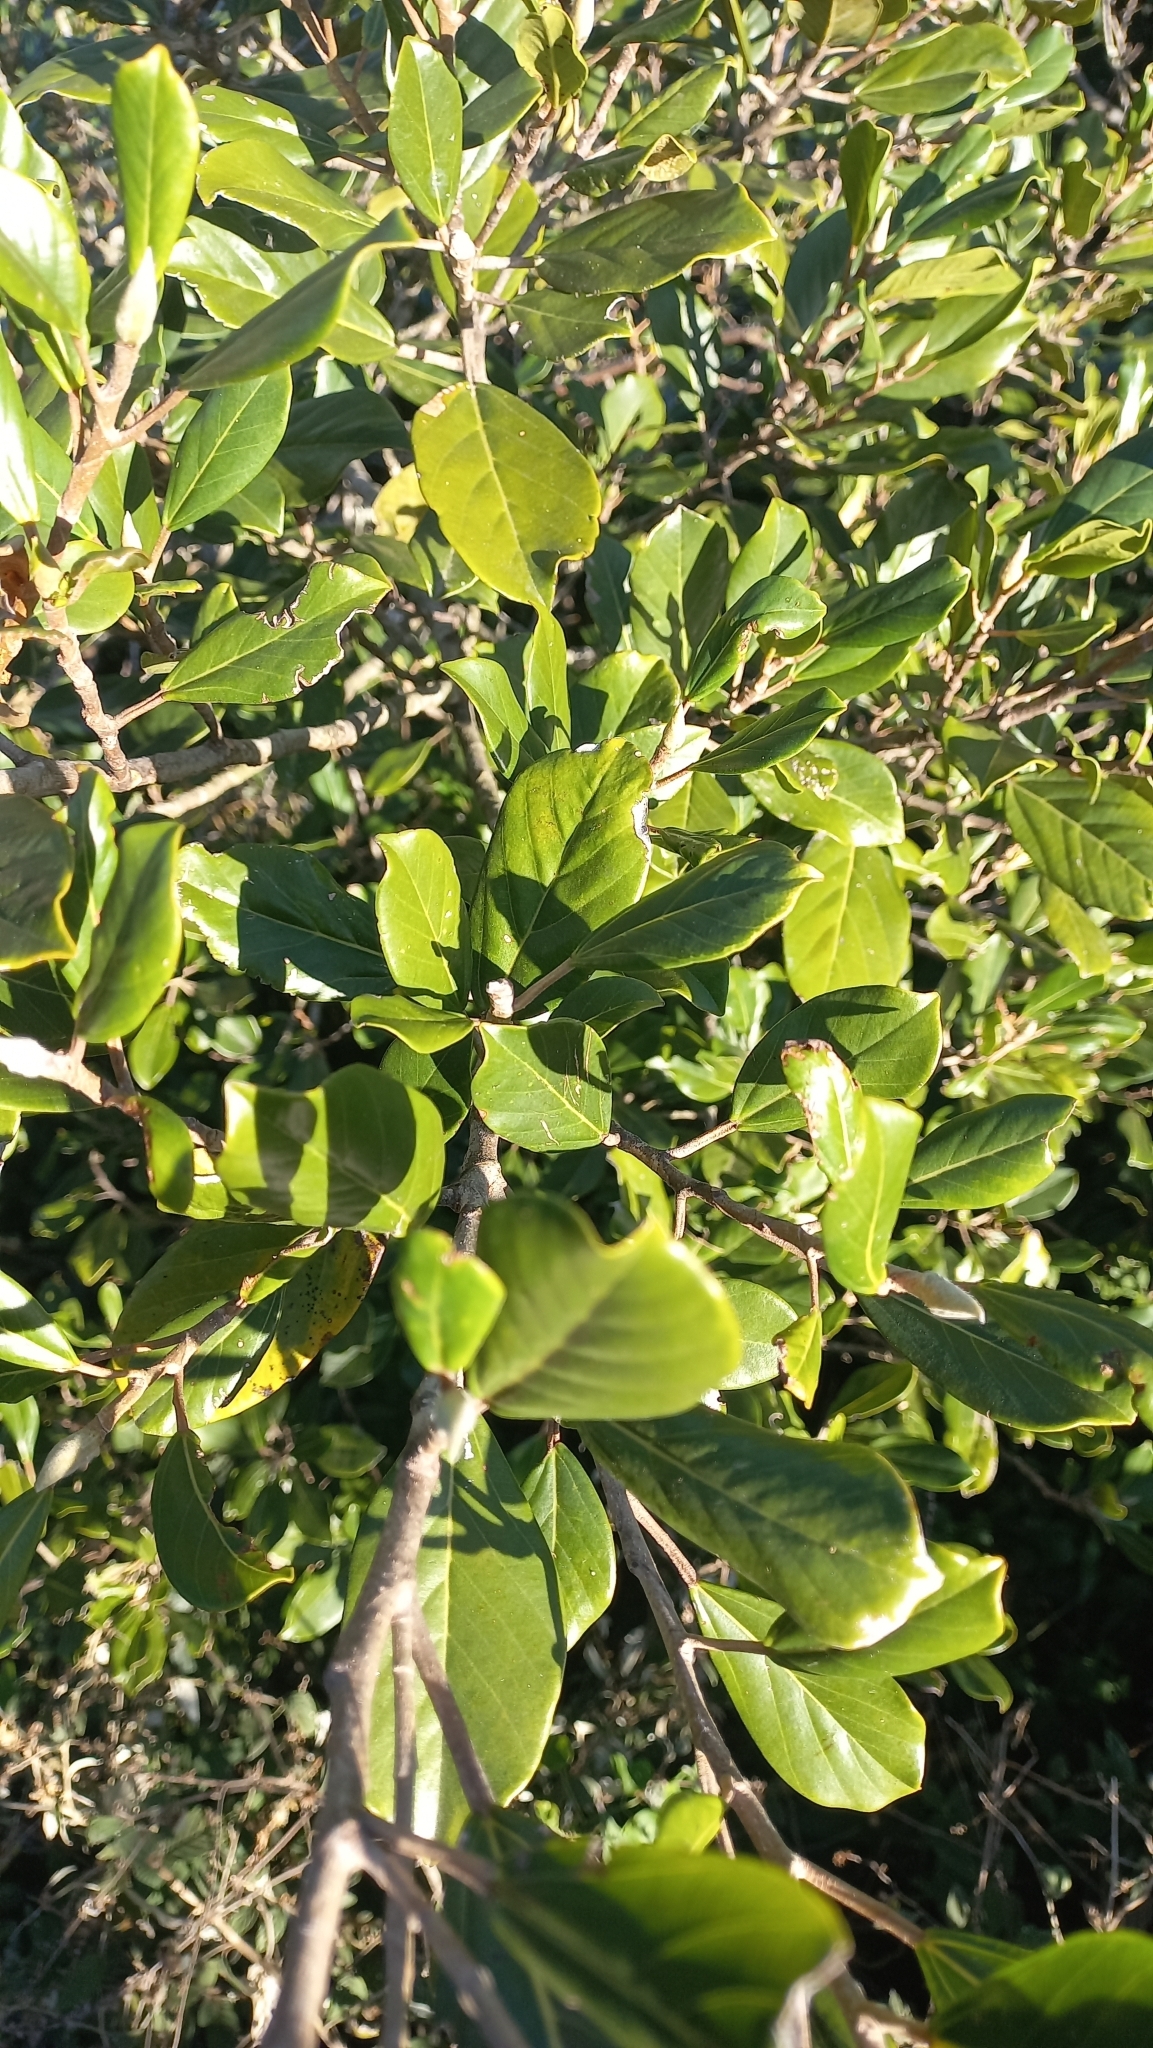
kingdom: Plantae
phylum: Tracheophyta
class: Magnoliopsida
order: Rosales
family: Urticaceae
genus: Coussapoa
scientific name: Coussapoa microcarpa
